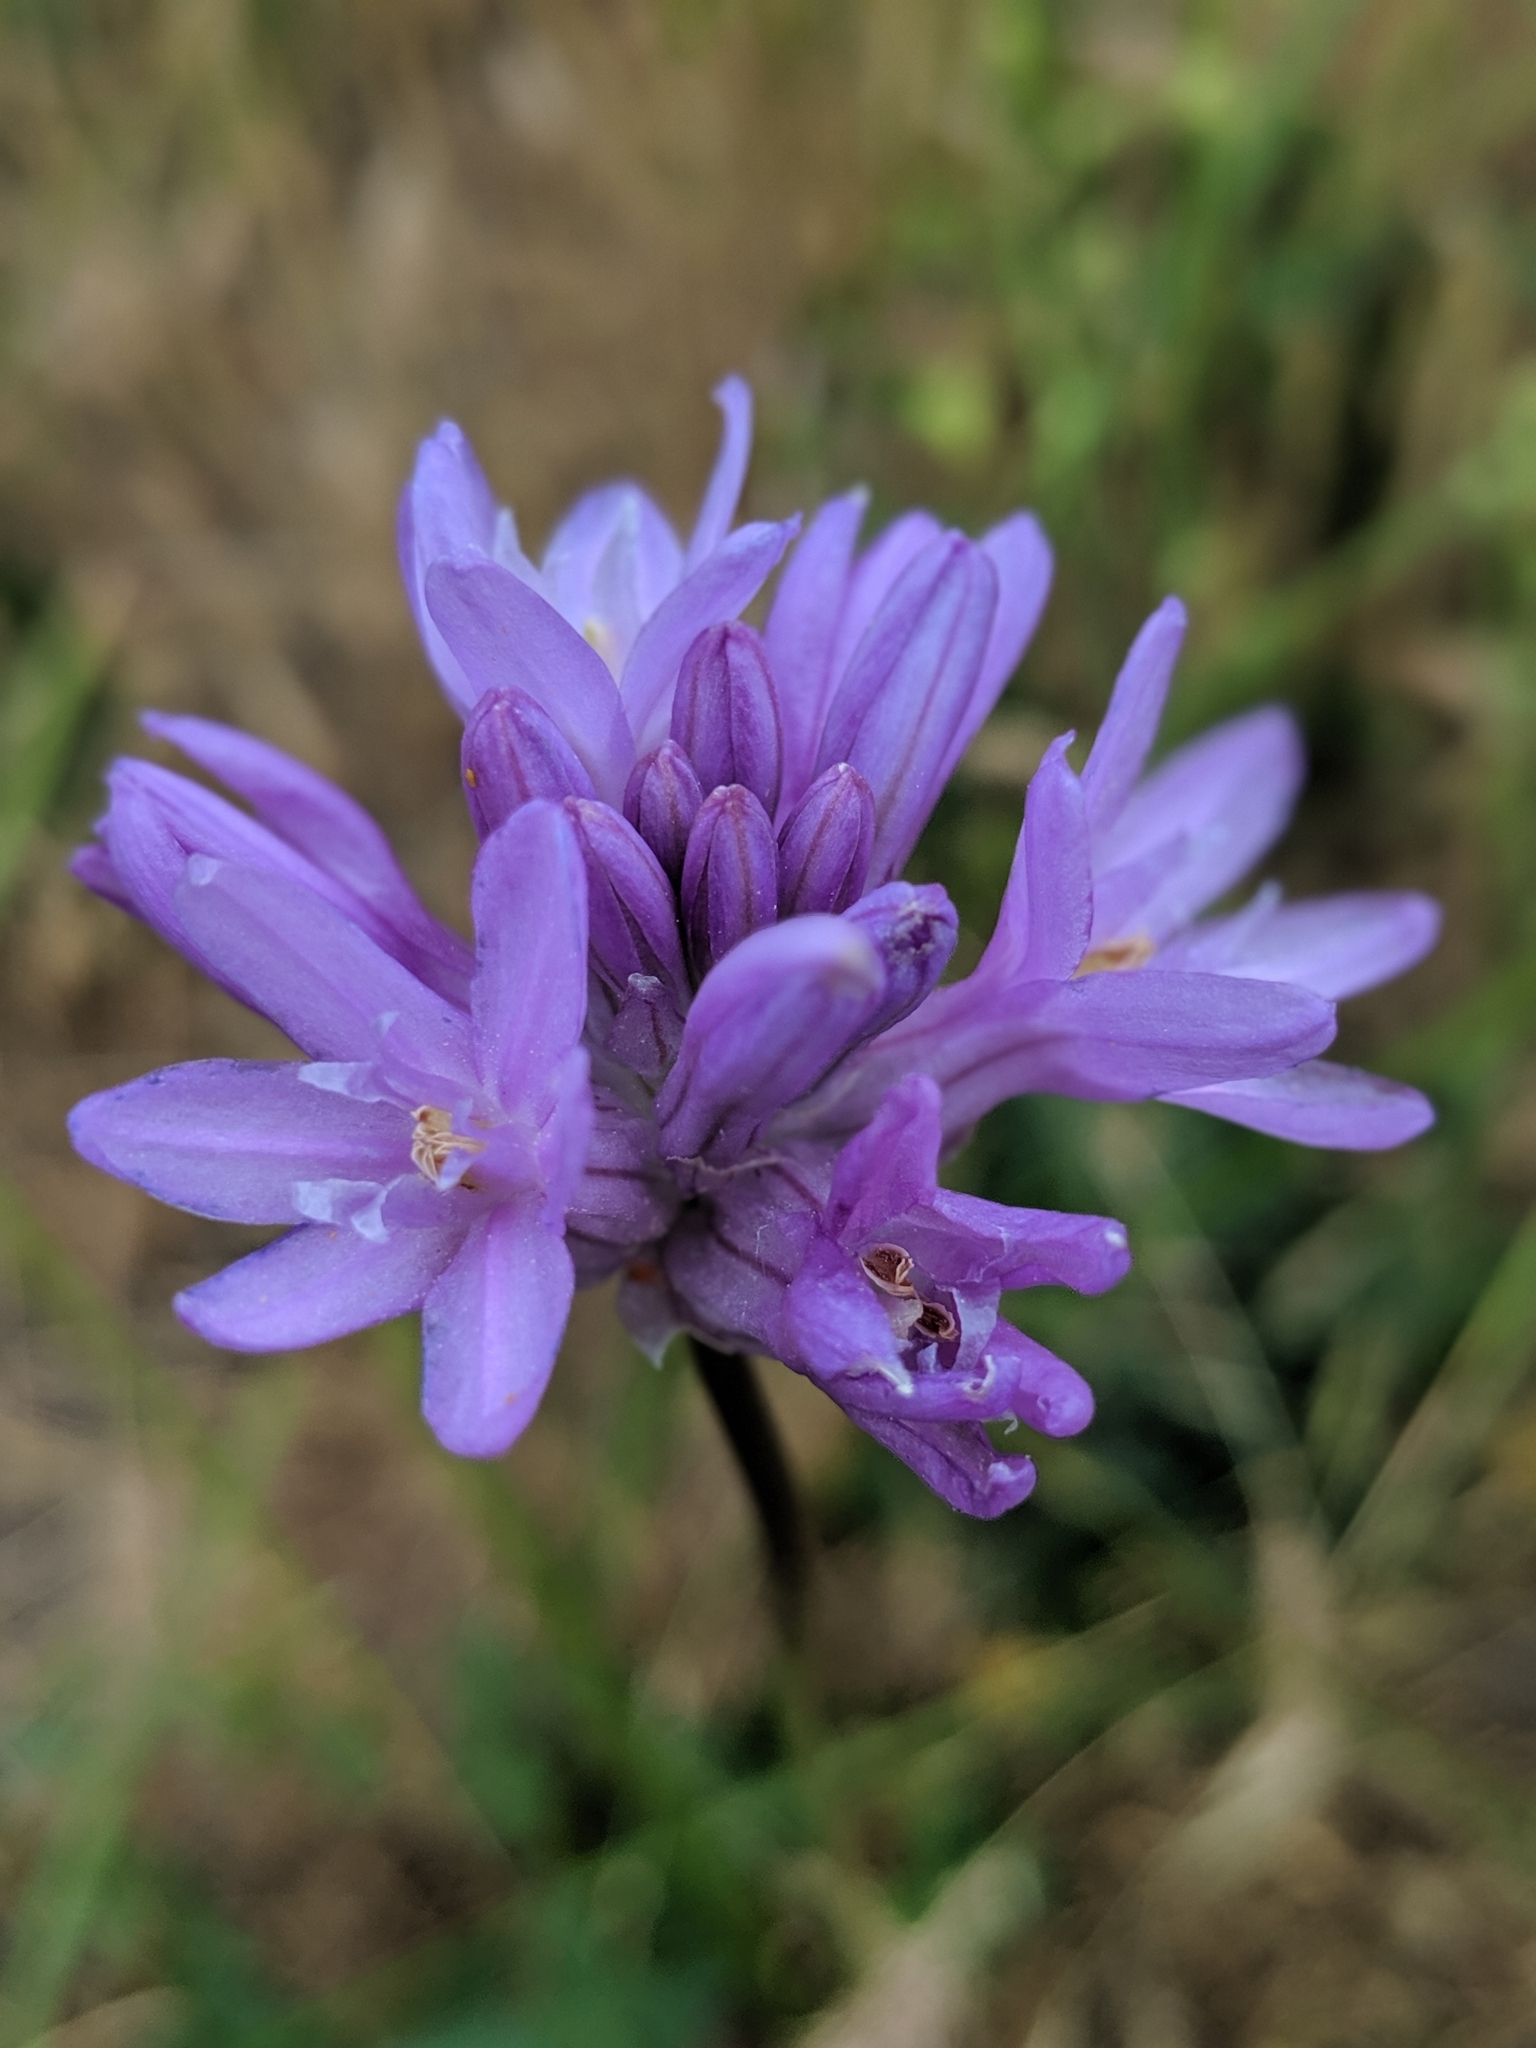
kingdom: Plantae
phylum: Tracheophyta
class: Liliopsida
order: Asparagales
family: Asparagaceae
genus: Dichelostemma
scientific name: Dichelostemma congestum
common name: Fork-tooth ookow
